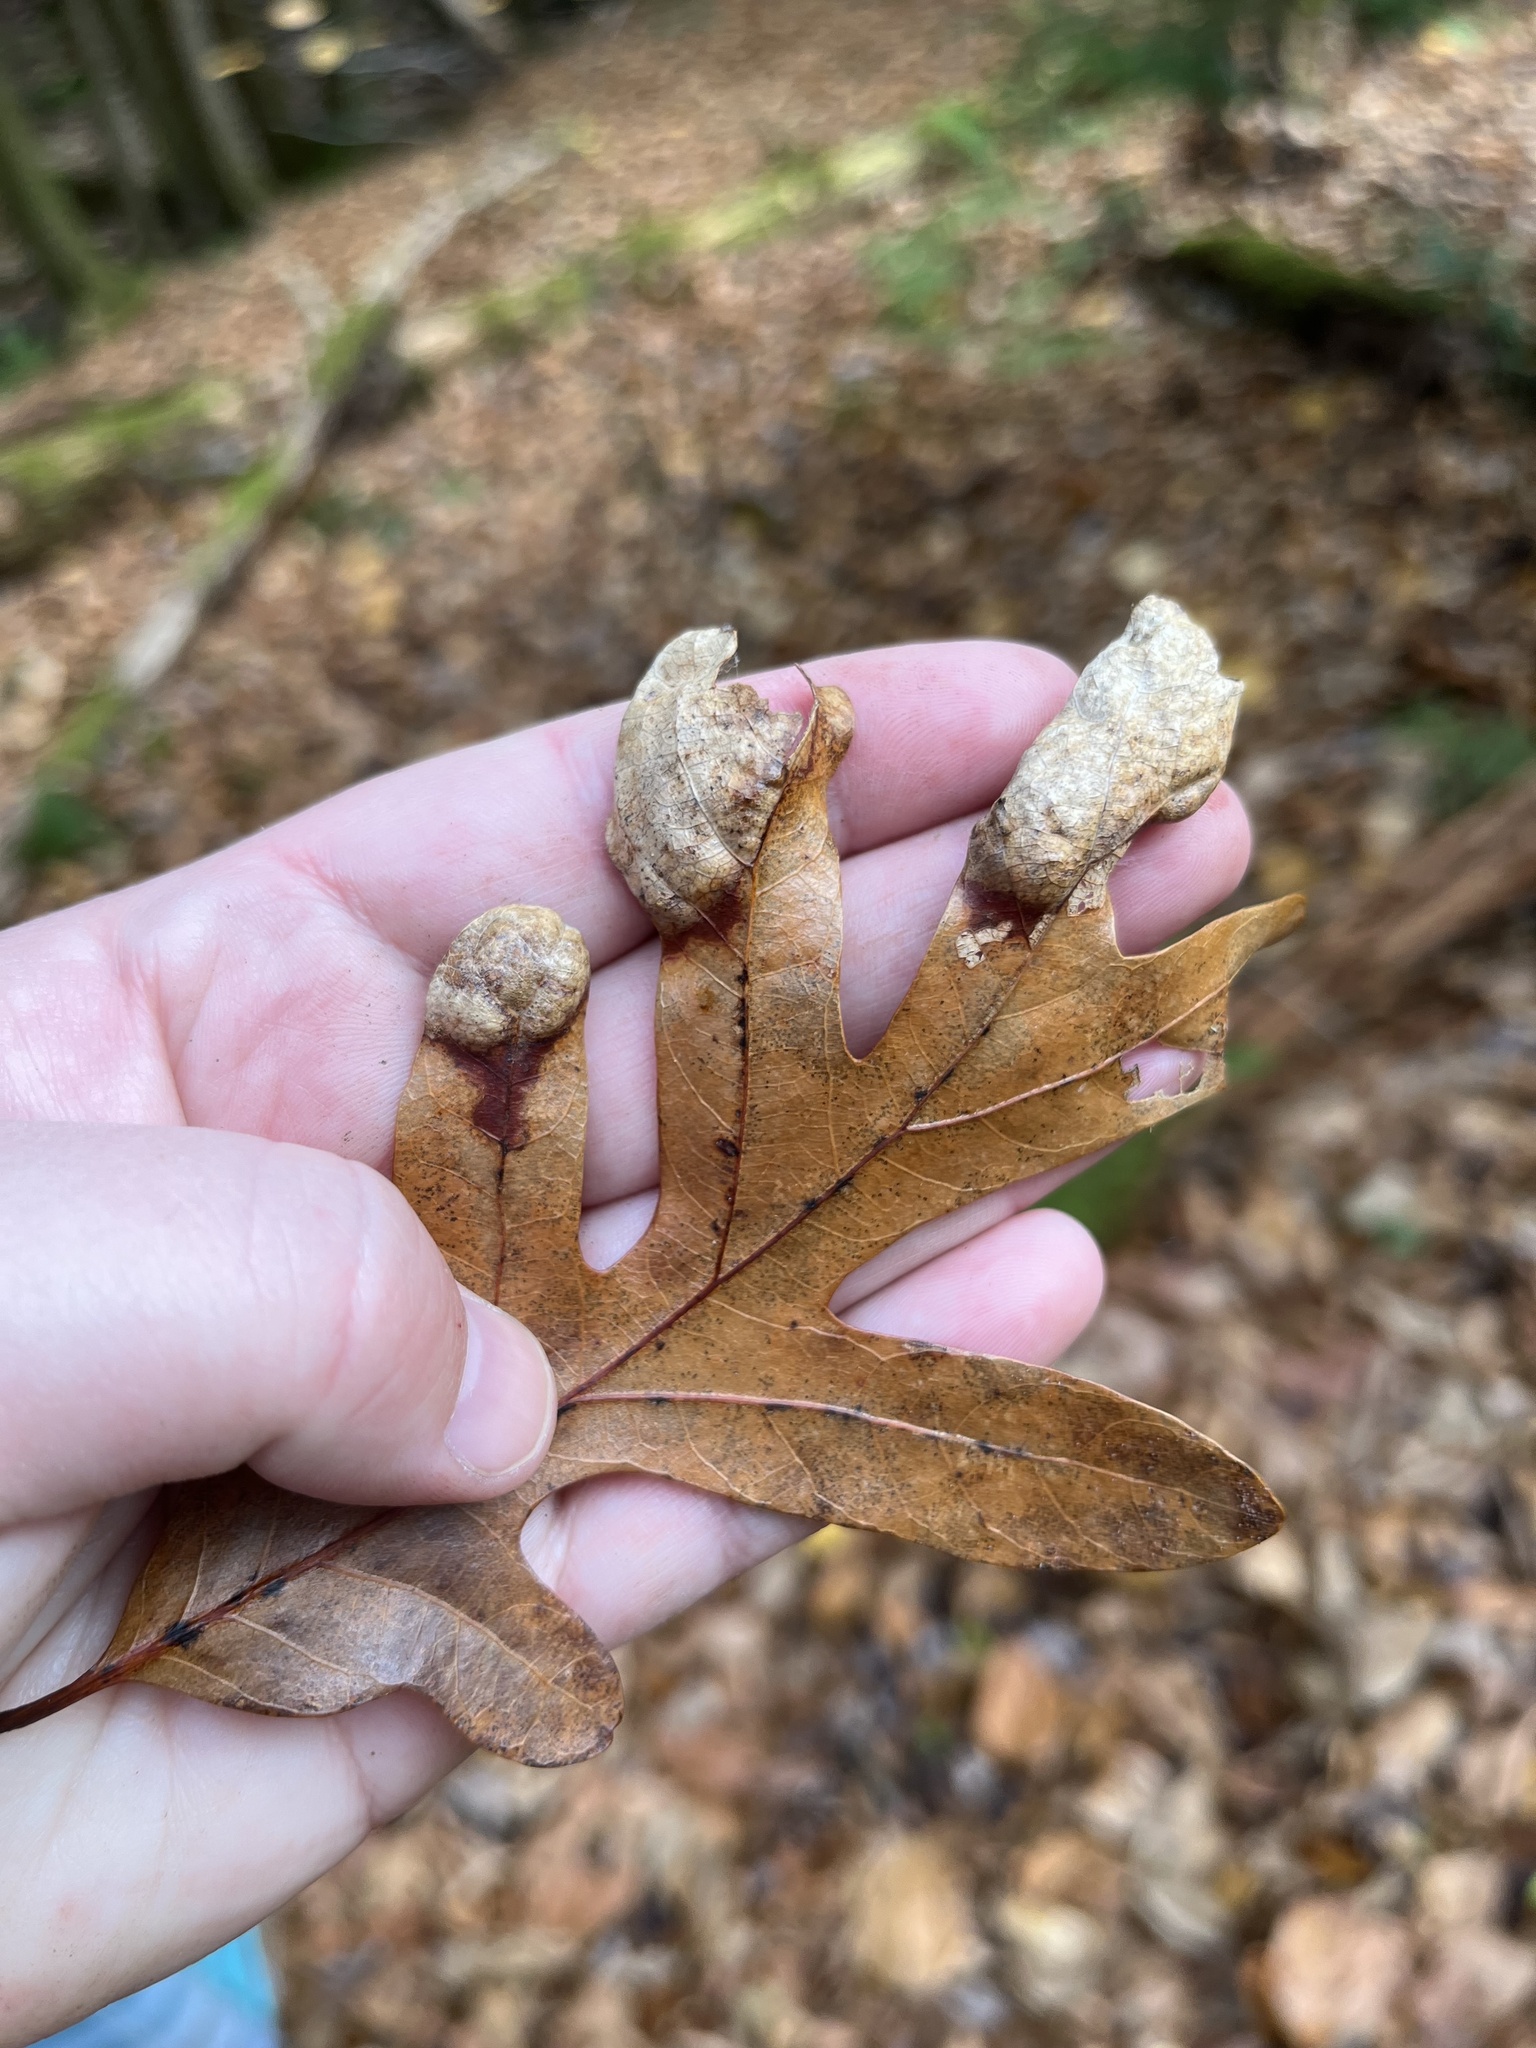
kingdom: Fungi
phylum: Ascomycota
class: Taphrinomycetes
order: Taphrinales
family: Taphrinaceae
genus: Taphrina
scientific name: Taphrina caerulescens
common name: Oak leaf blister
